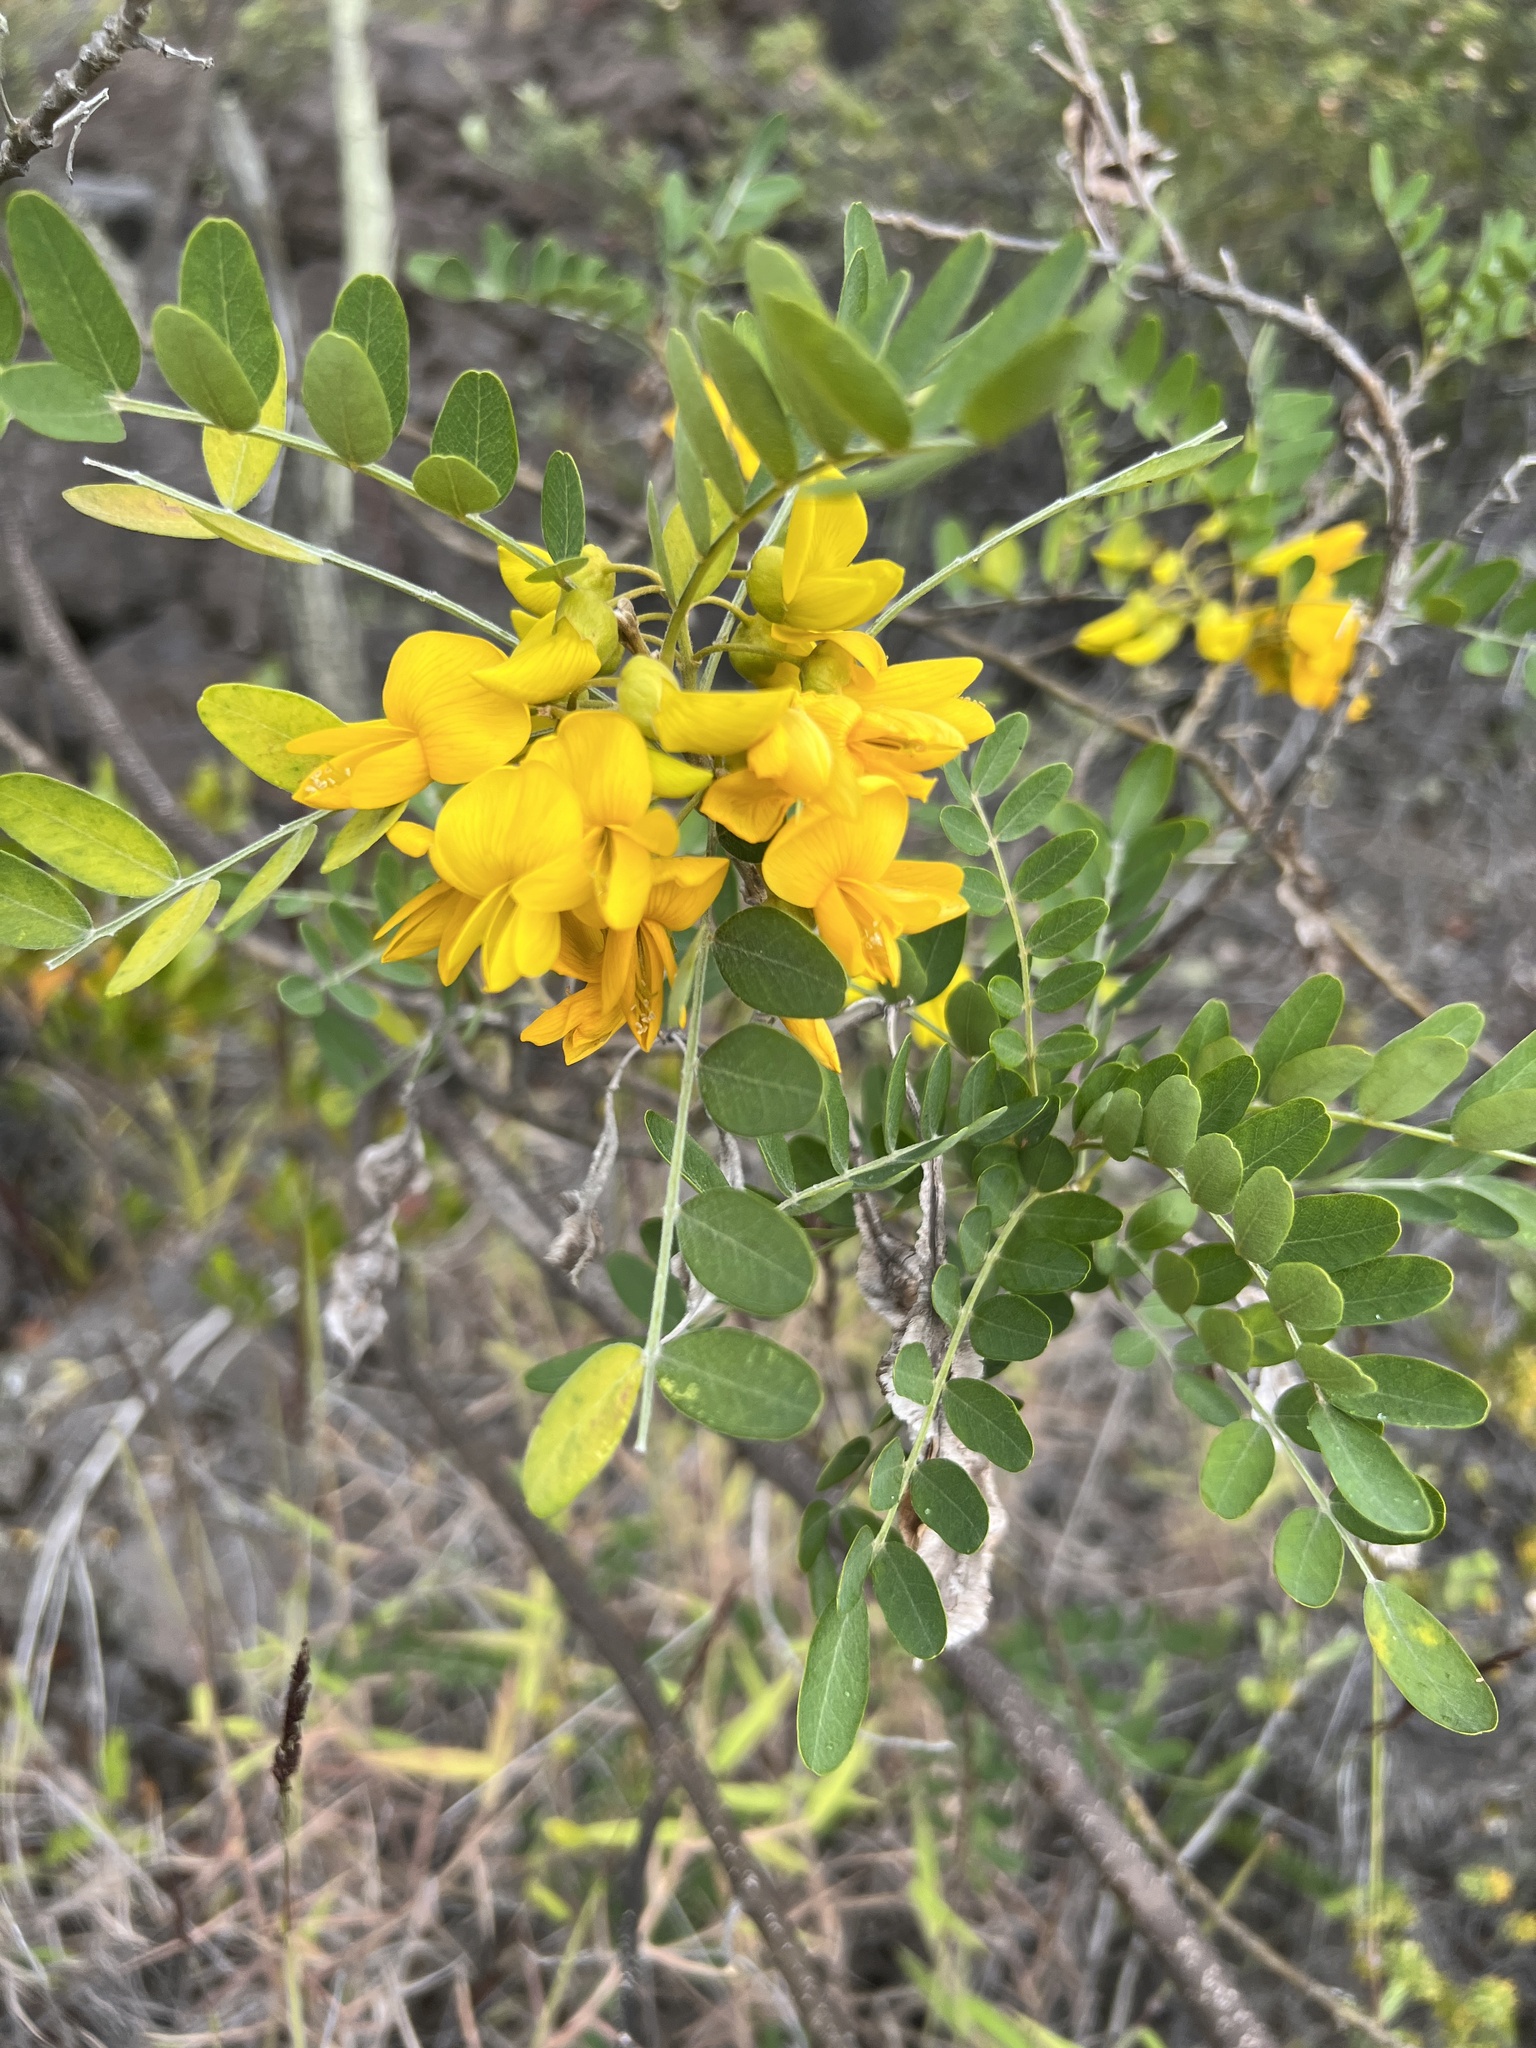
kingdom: Plantae
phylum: Tracheophyta
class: Magnoliopsida
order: Fabales
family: Fabaceae
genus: Sophora
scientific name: Sophora chrysophylla
